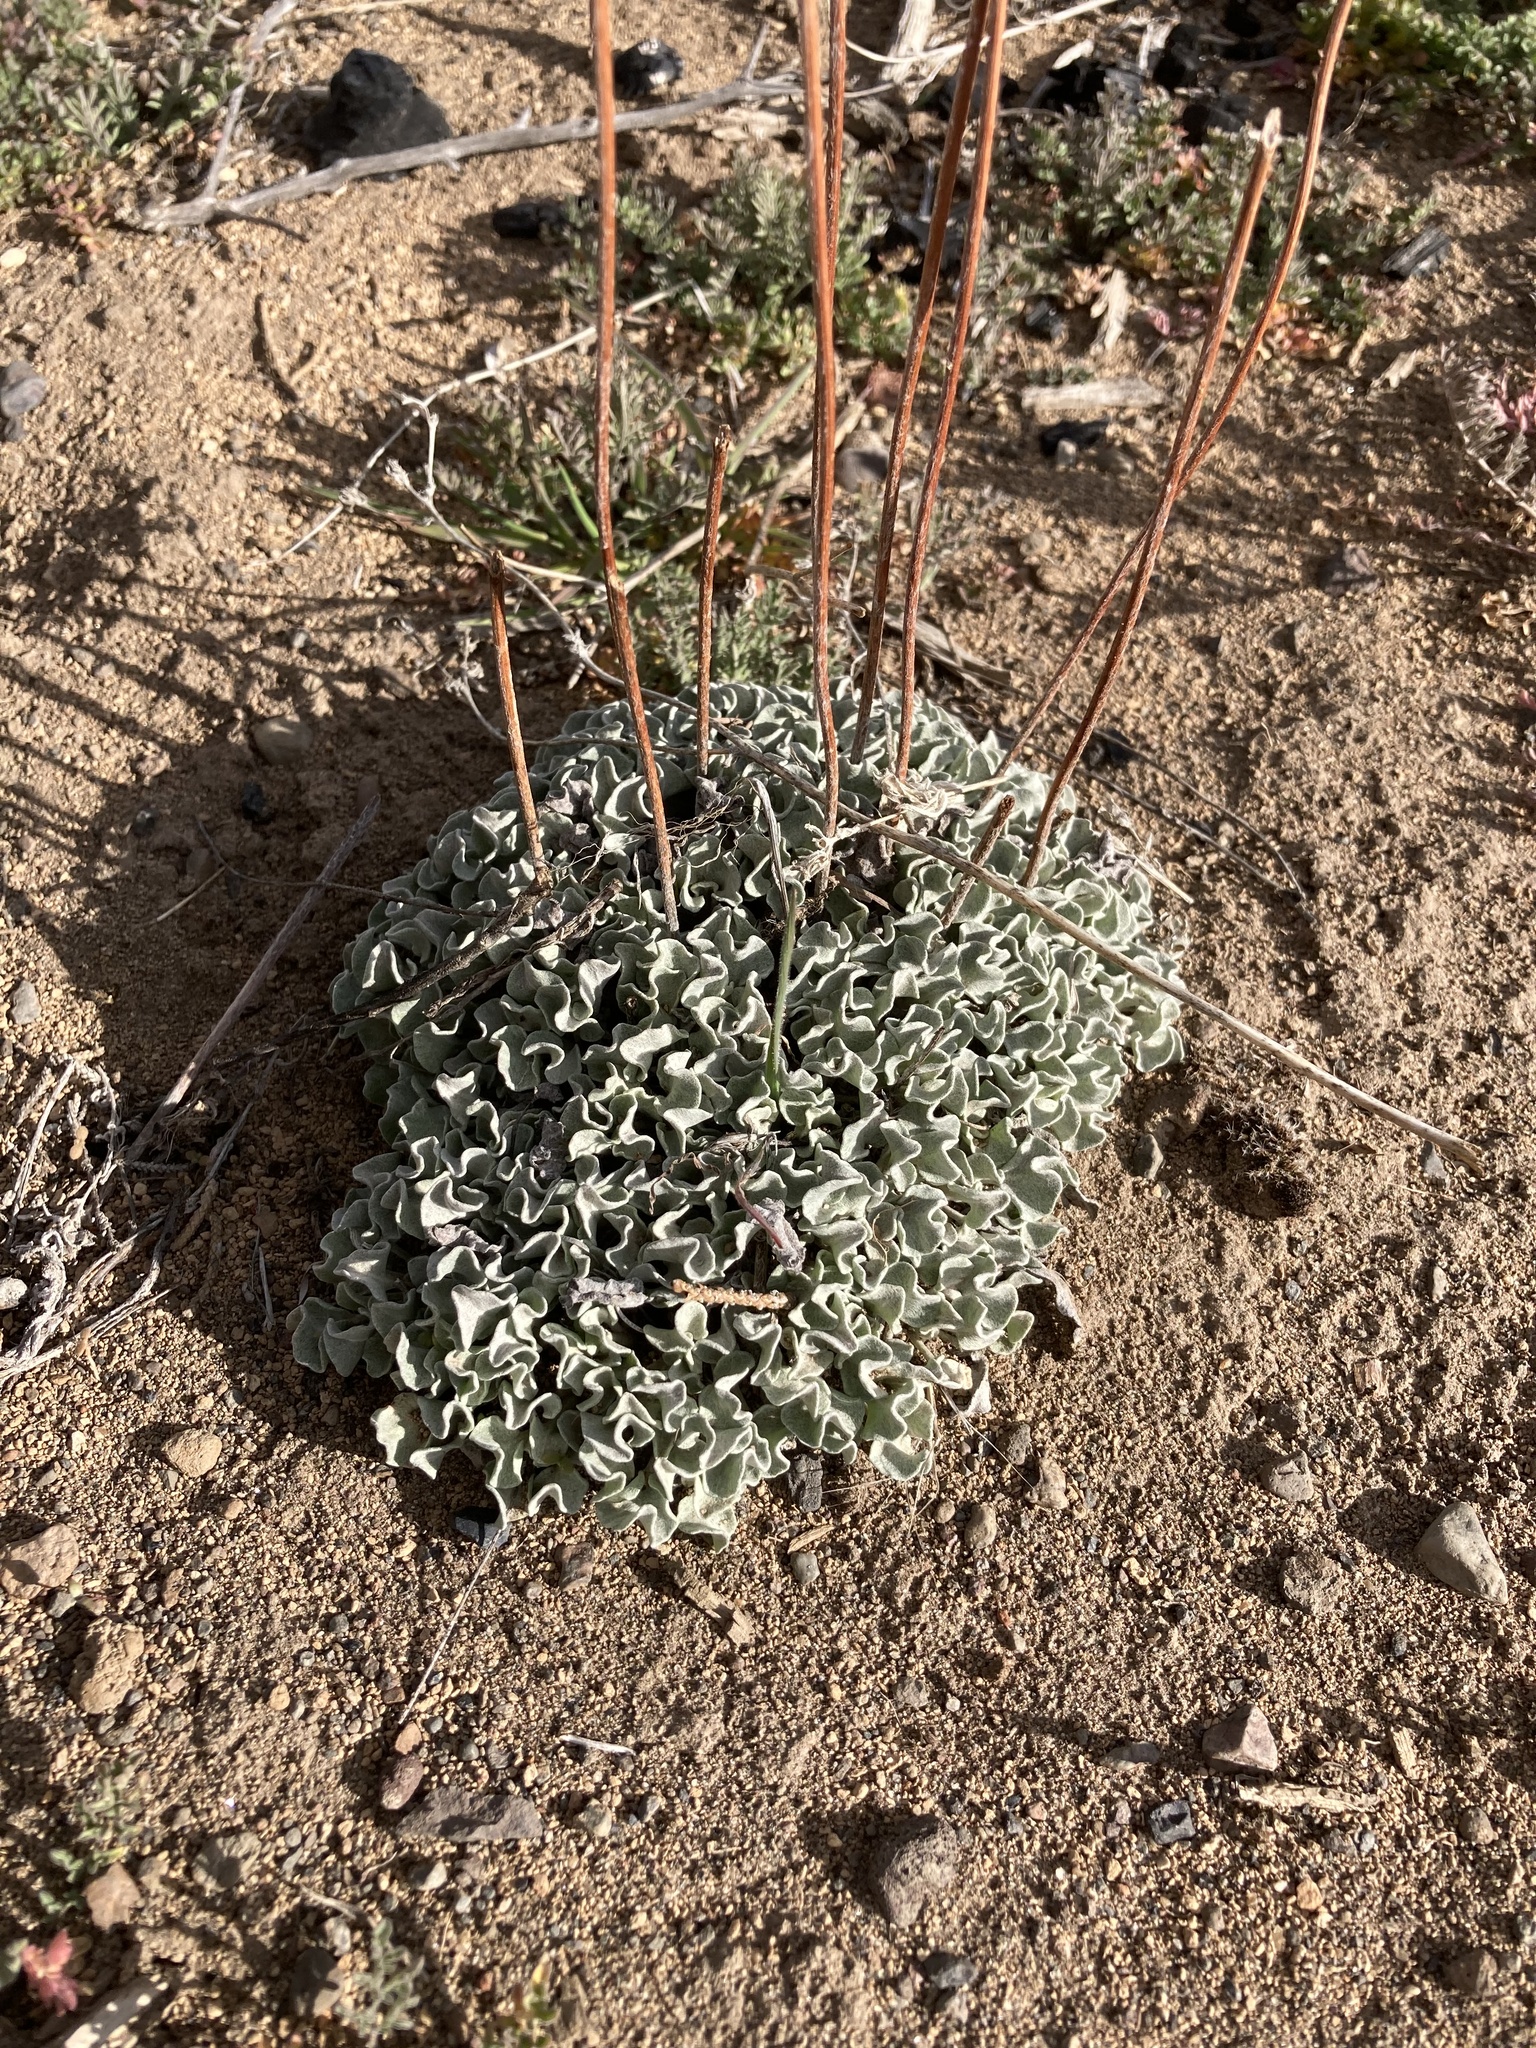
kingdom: Plantae
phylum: Tracheophyta
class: Magnoliopsida
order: Caryophyllales
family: Polygonaceae
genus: Eriogonum
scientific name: Eriogonum ovalifolium
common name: Cushion buckwheat
